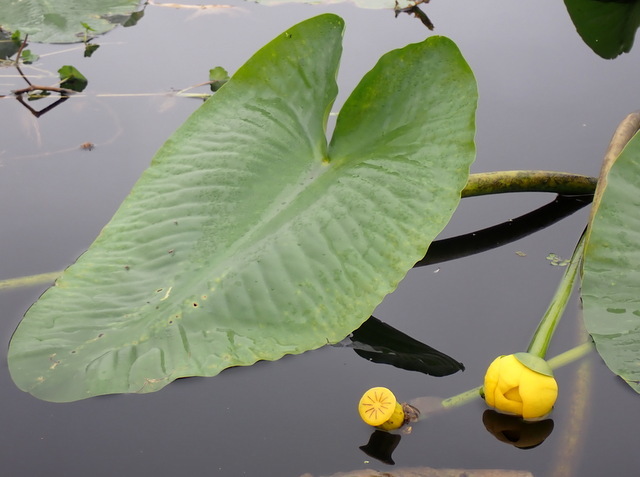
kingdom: Plantae
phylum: Tracheophyta
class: Magnoliopsida
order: Nymphaeales
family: Nymphaeaceae
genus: Nuphar
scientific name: Nuphar advena
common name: Spatter-dock
